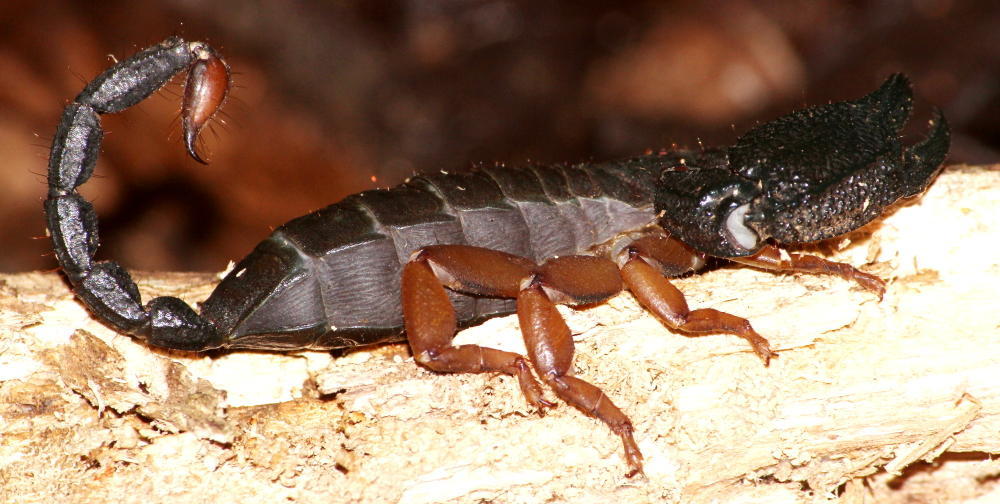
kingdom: Animalia
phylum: Arthropoda
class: Arachnida
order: Scorpiones
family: Hormuridae
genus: Opisthacanthus
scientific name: Opisthacanthus asper
